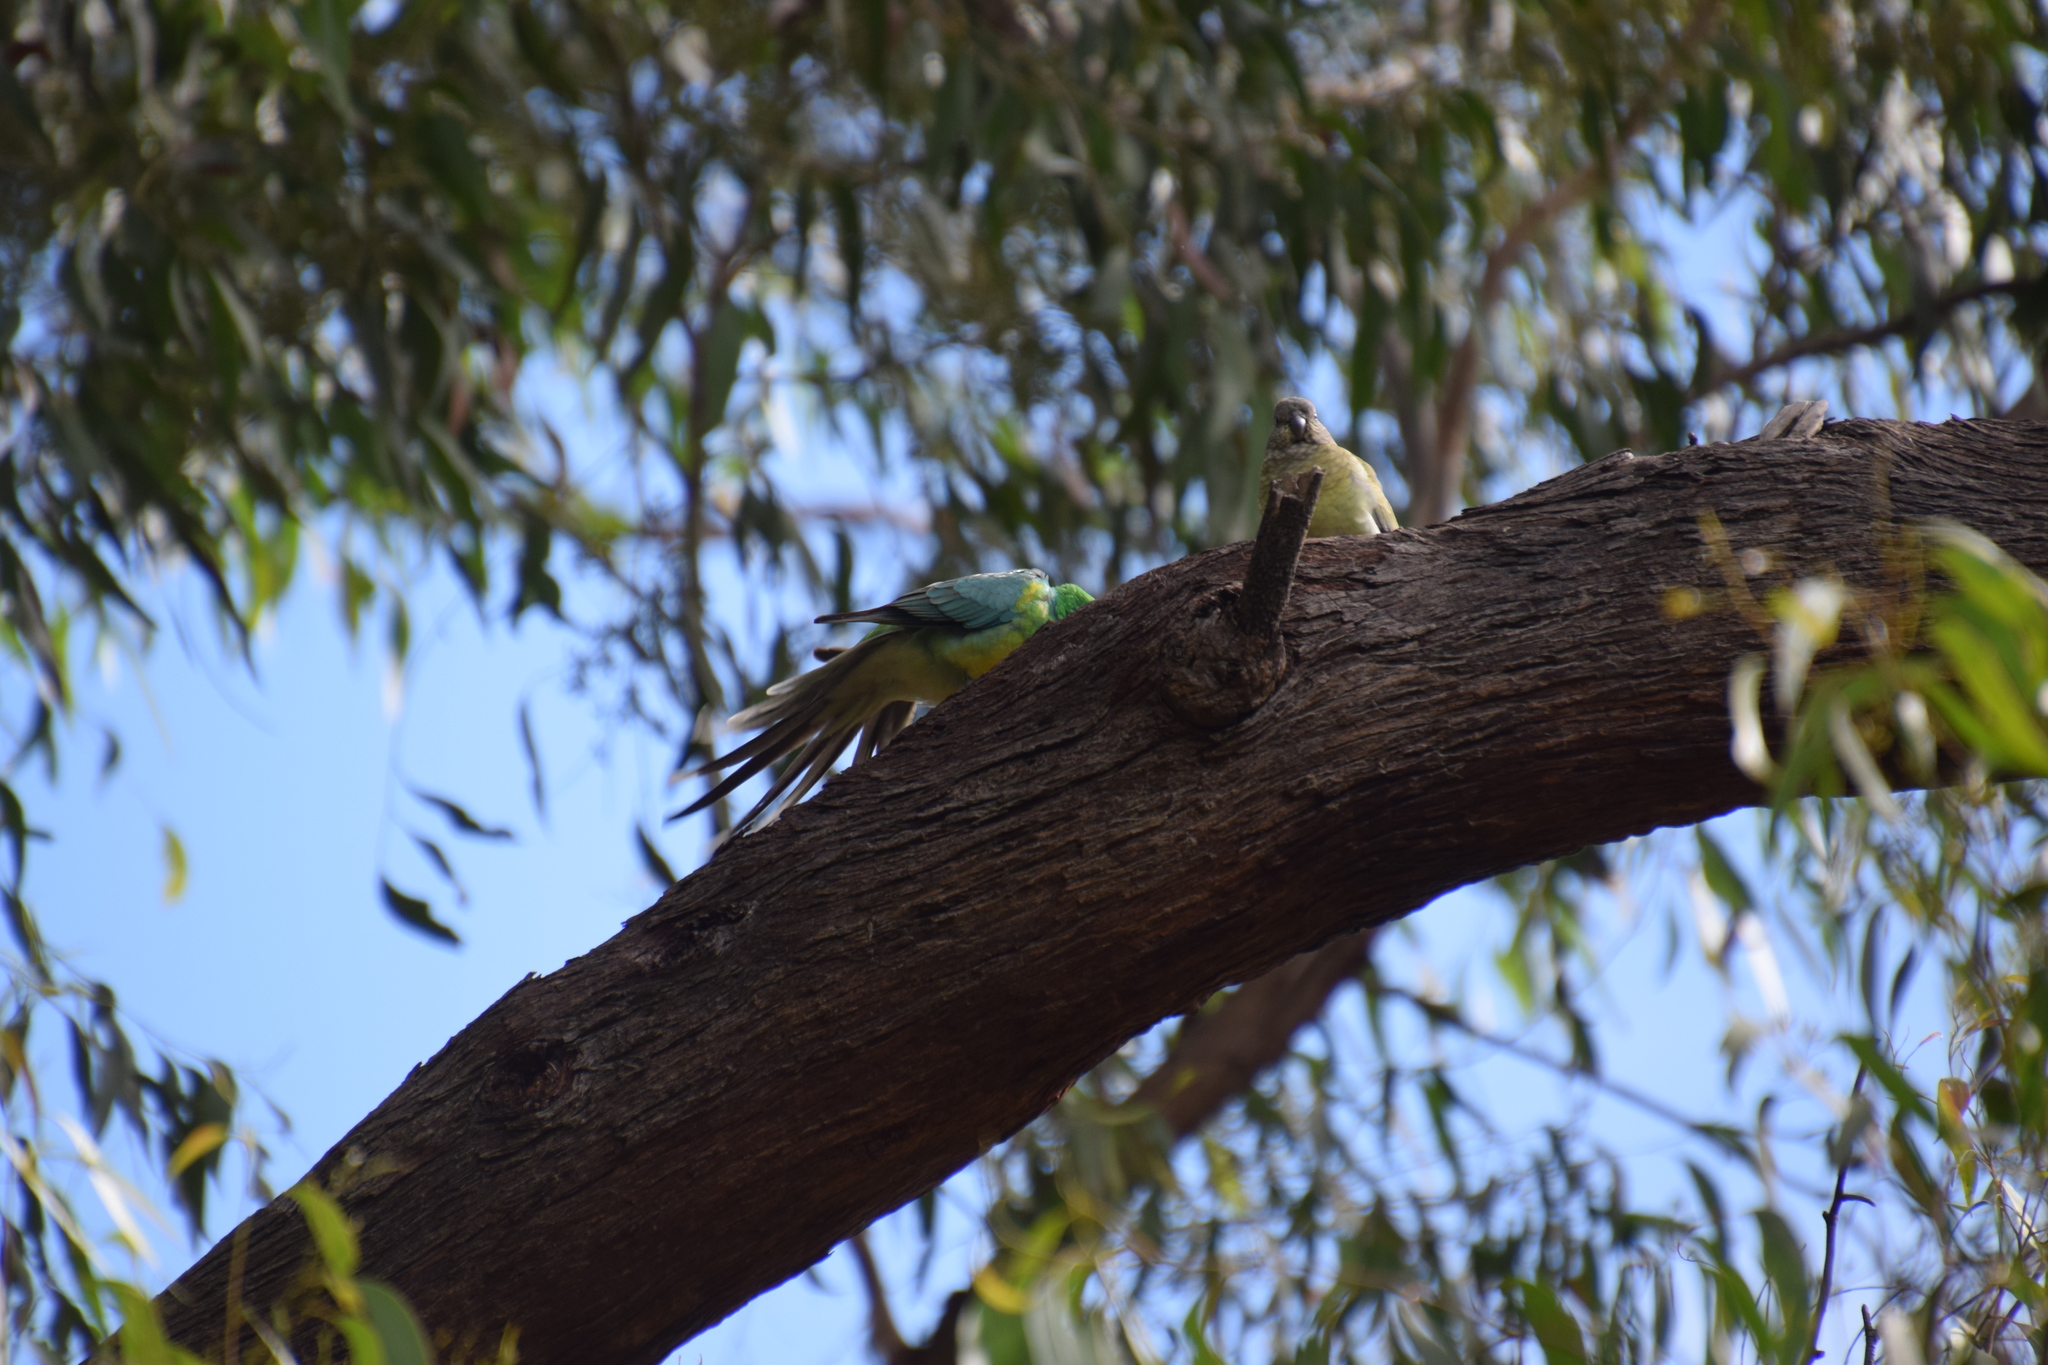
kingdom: Animalia
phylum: Chordata
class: Aves
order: Psittaciformes
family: Psittacidae
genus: Psephotus
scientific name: Psephotus haematonotus
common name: Red-rumped parrot
